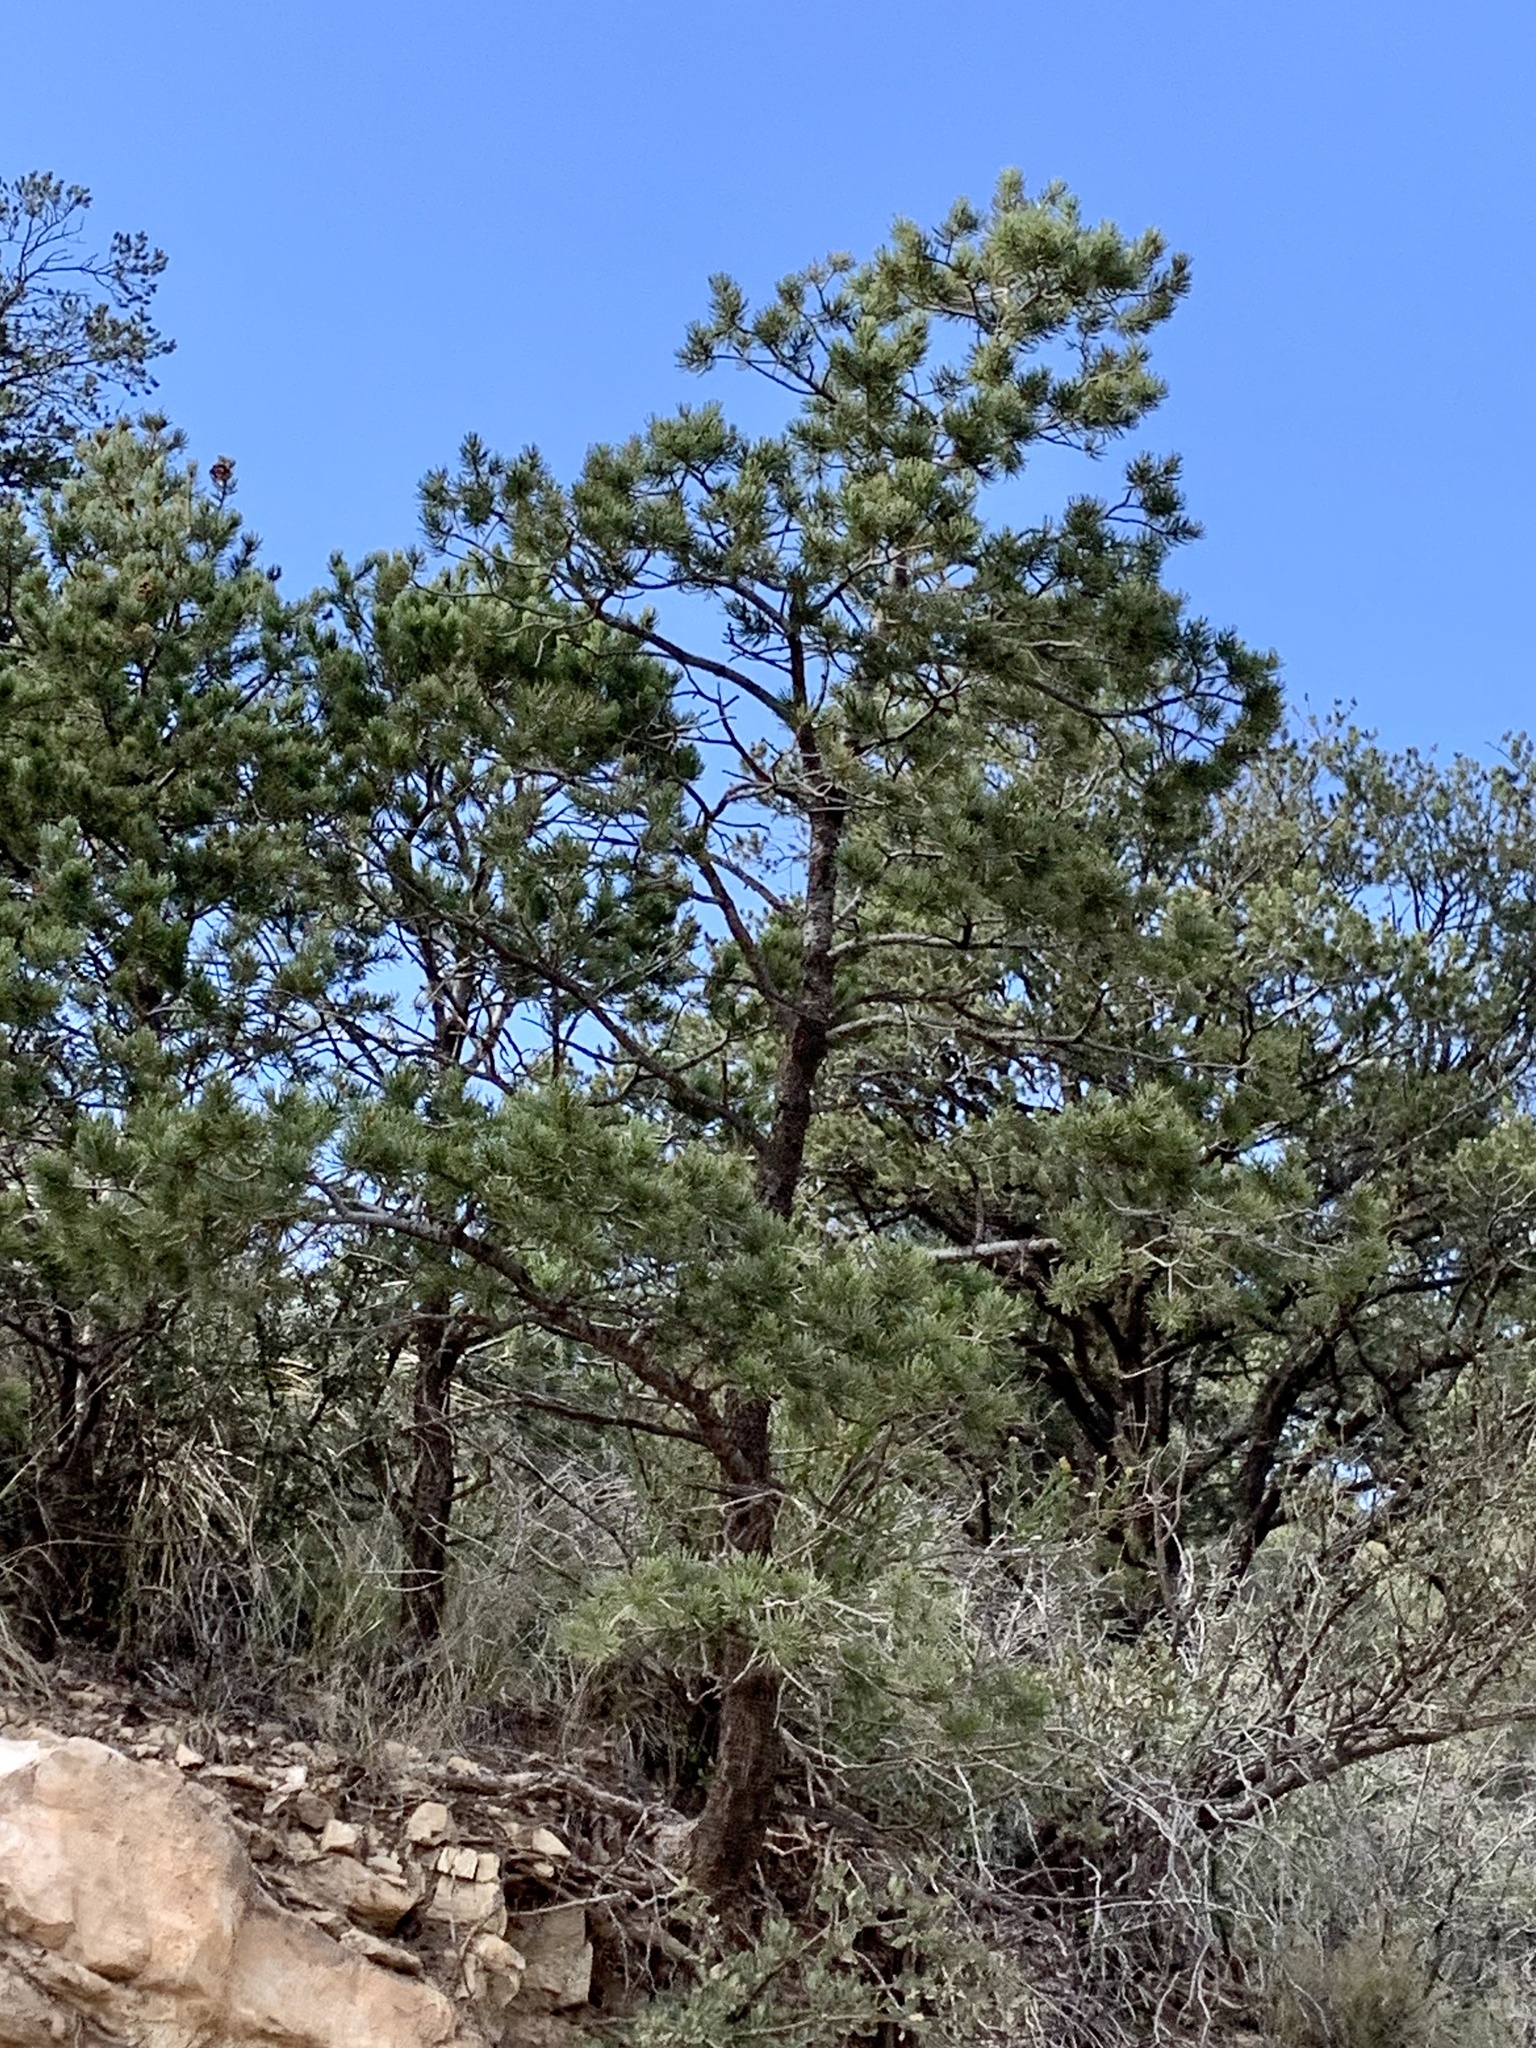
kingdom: Plantae
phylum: Tracheophyta
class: Pinopsida
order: Pinales
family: Pinaceae
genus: Pinus
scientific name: Pinus edulis
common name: Colorado pinyon
